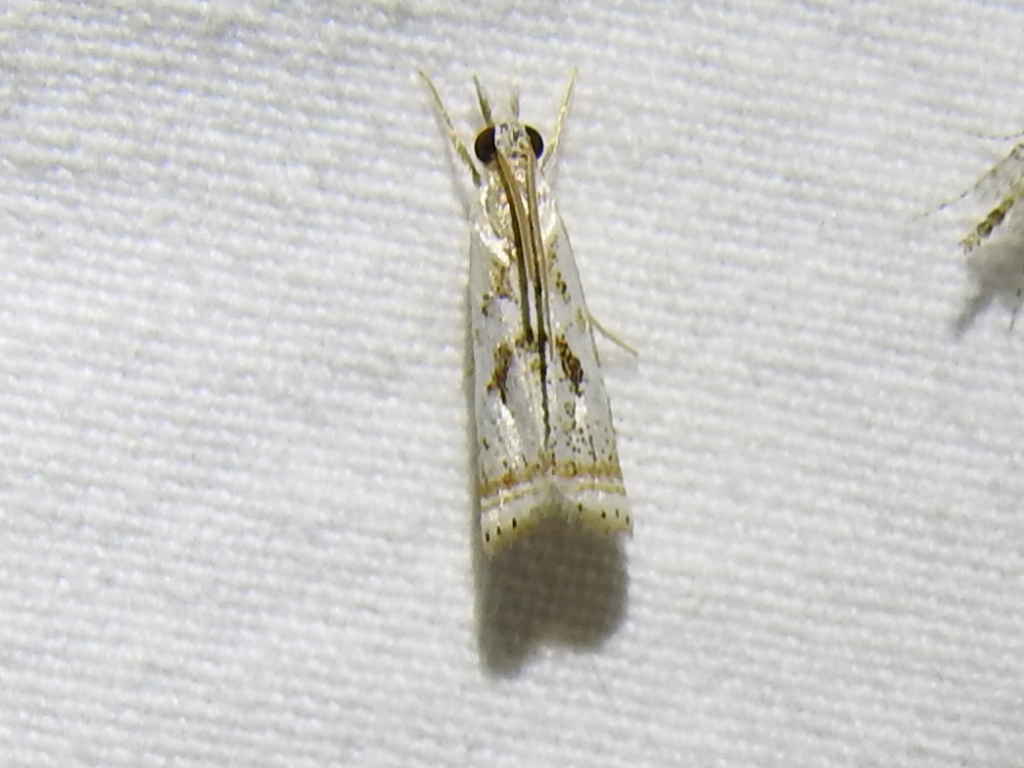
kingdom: Animalia
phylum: Arthropoda
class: Insecta
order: Lepidoptera
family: Crambidae
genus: Microcrambus
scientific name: Microcrambus elegans
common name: Elegant grass-veneer
